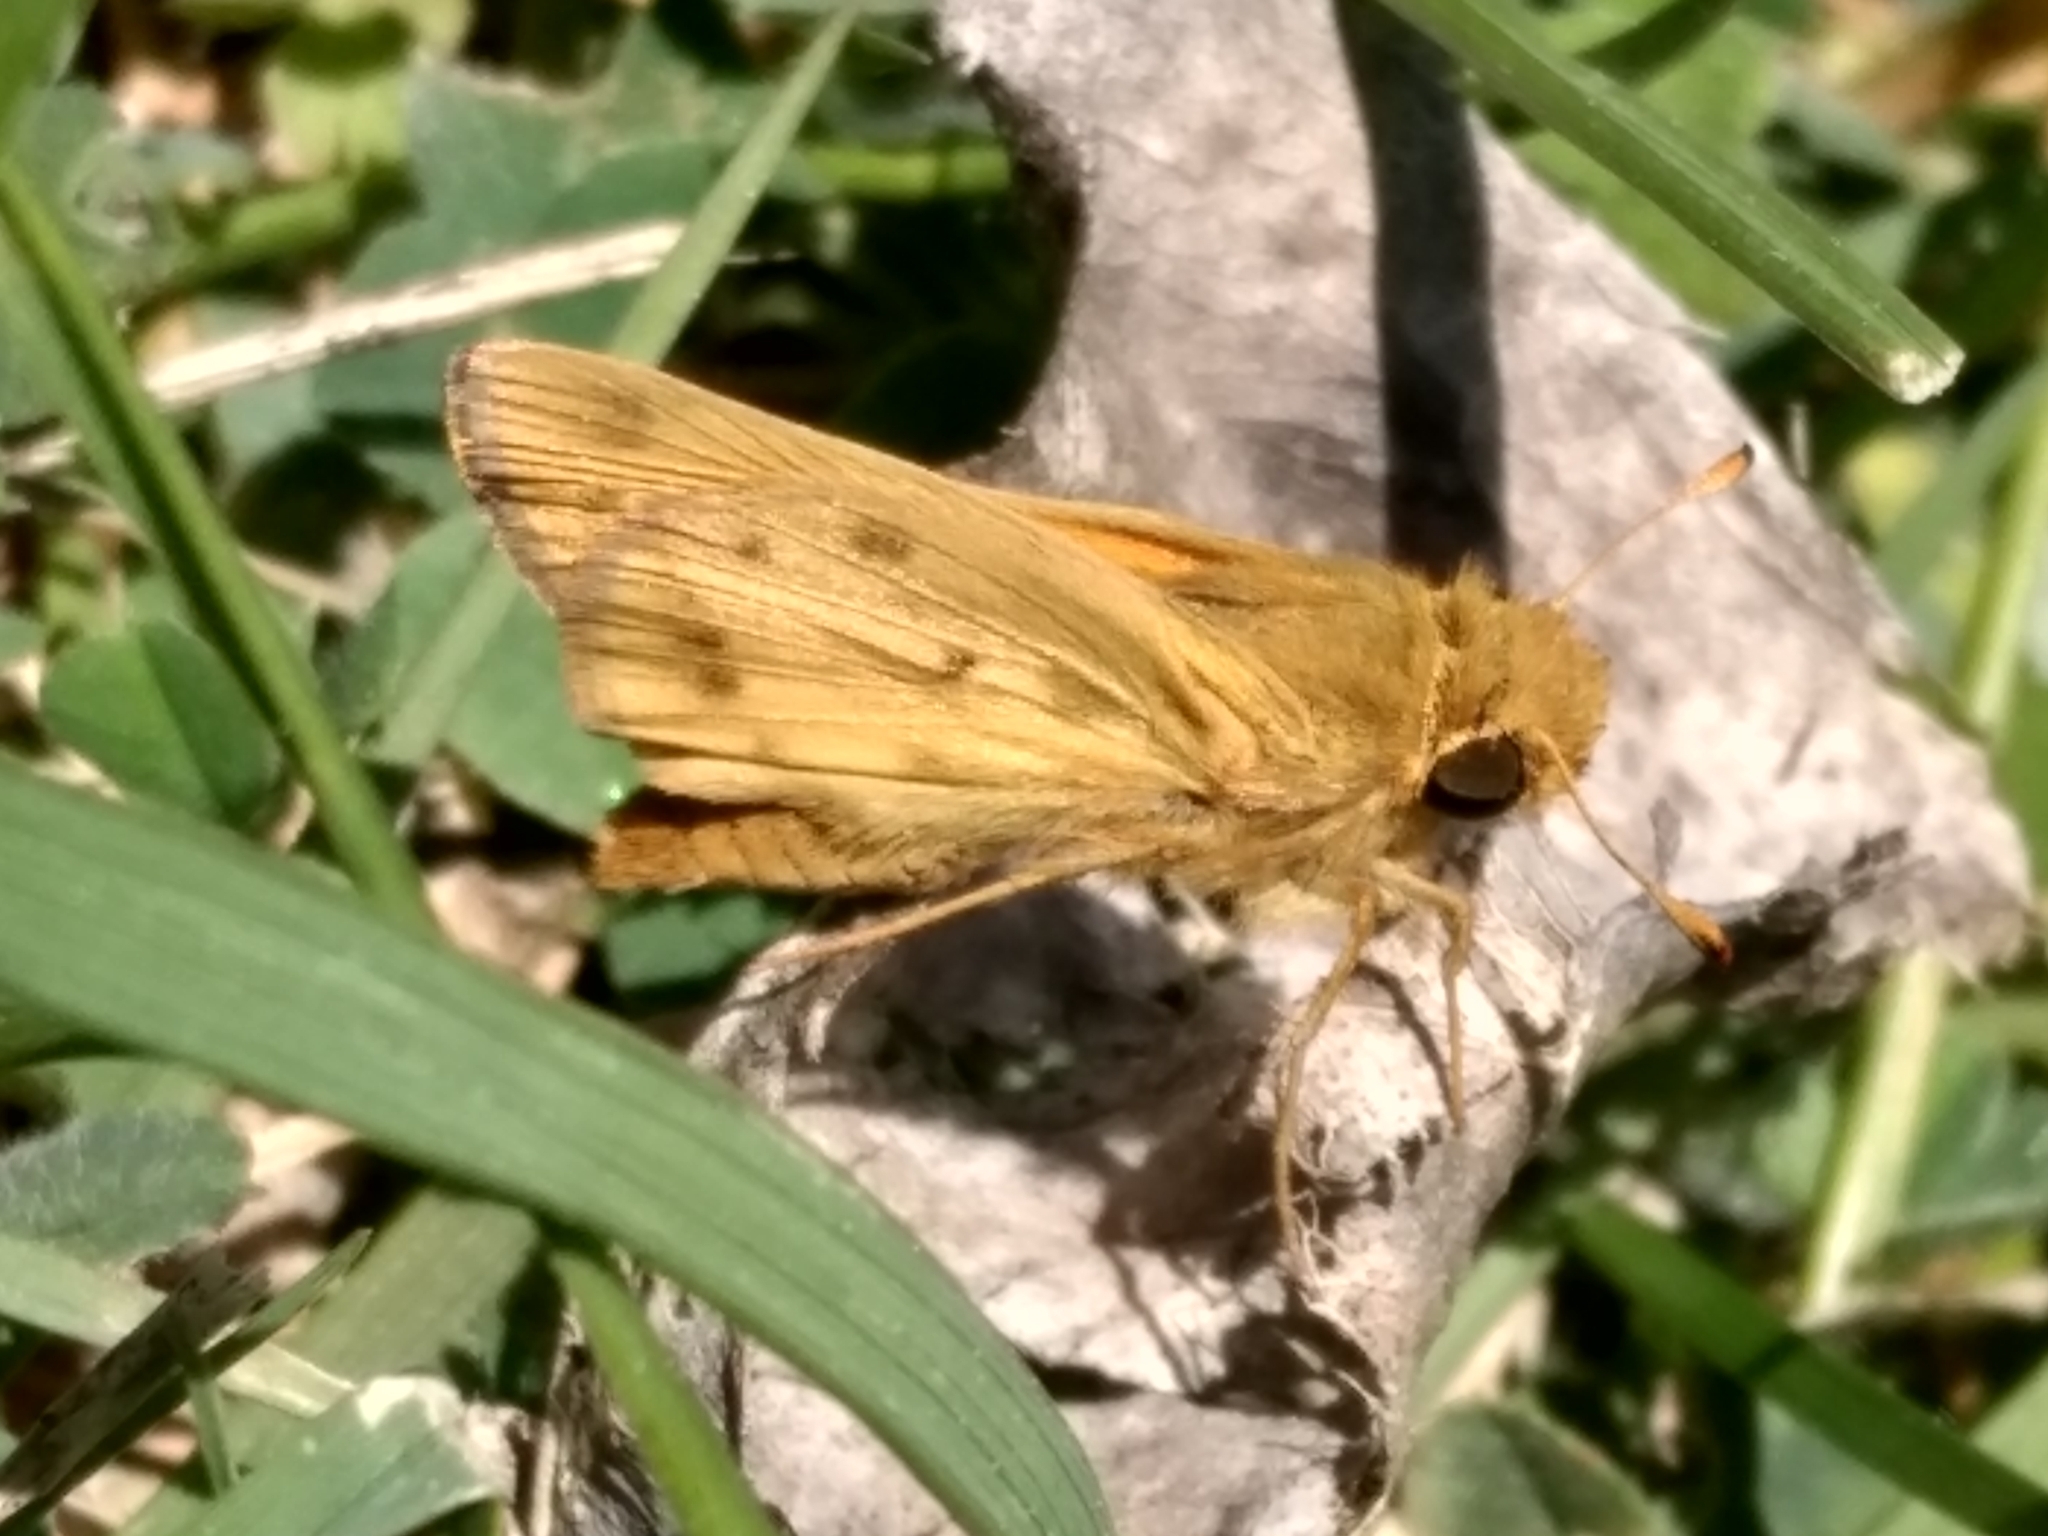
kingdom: Animalia
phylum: Arthropoda
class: Insecta
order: Lepidoptera
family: Hesperiidae
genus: Hylephila
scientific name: Hylephila phyleus
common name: Fiery skipper
